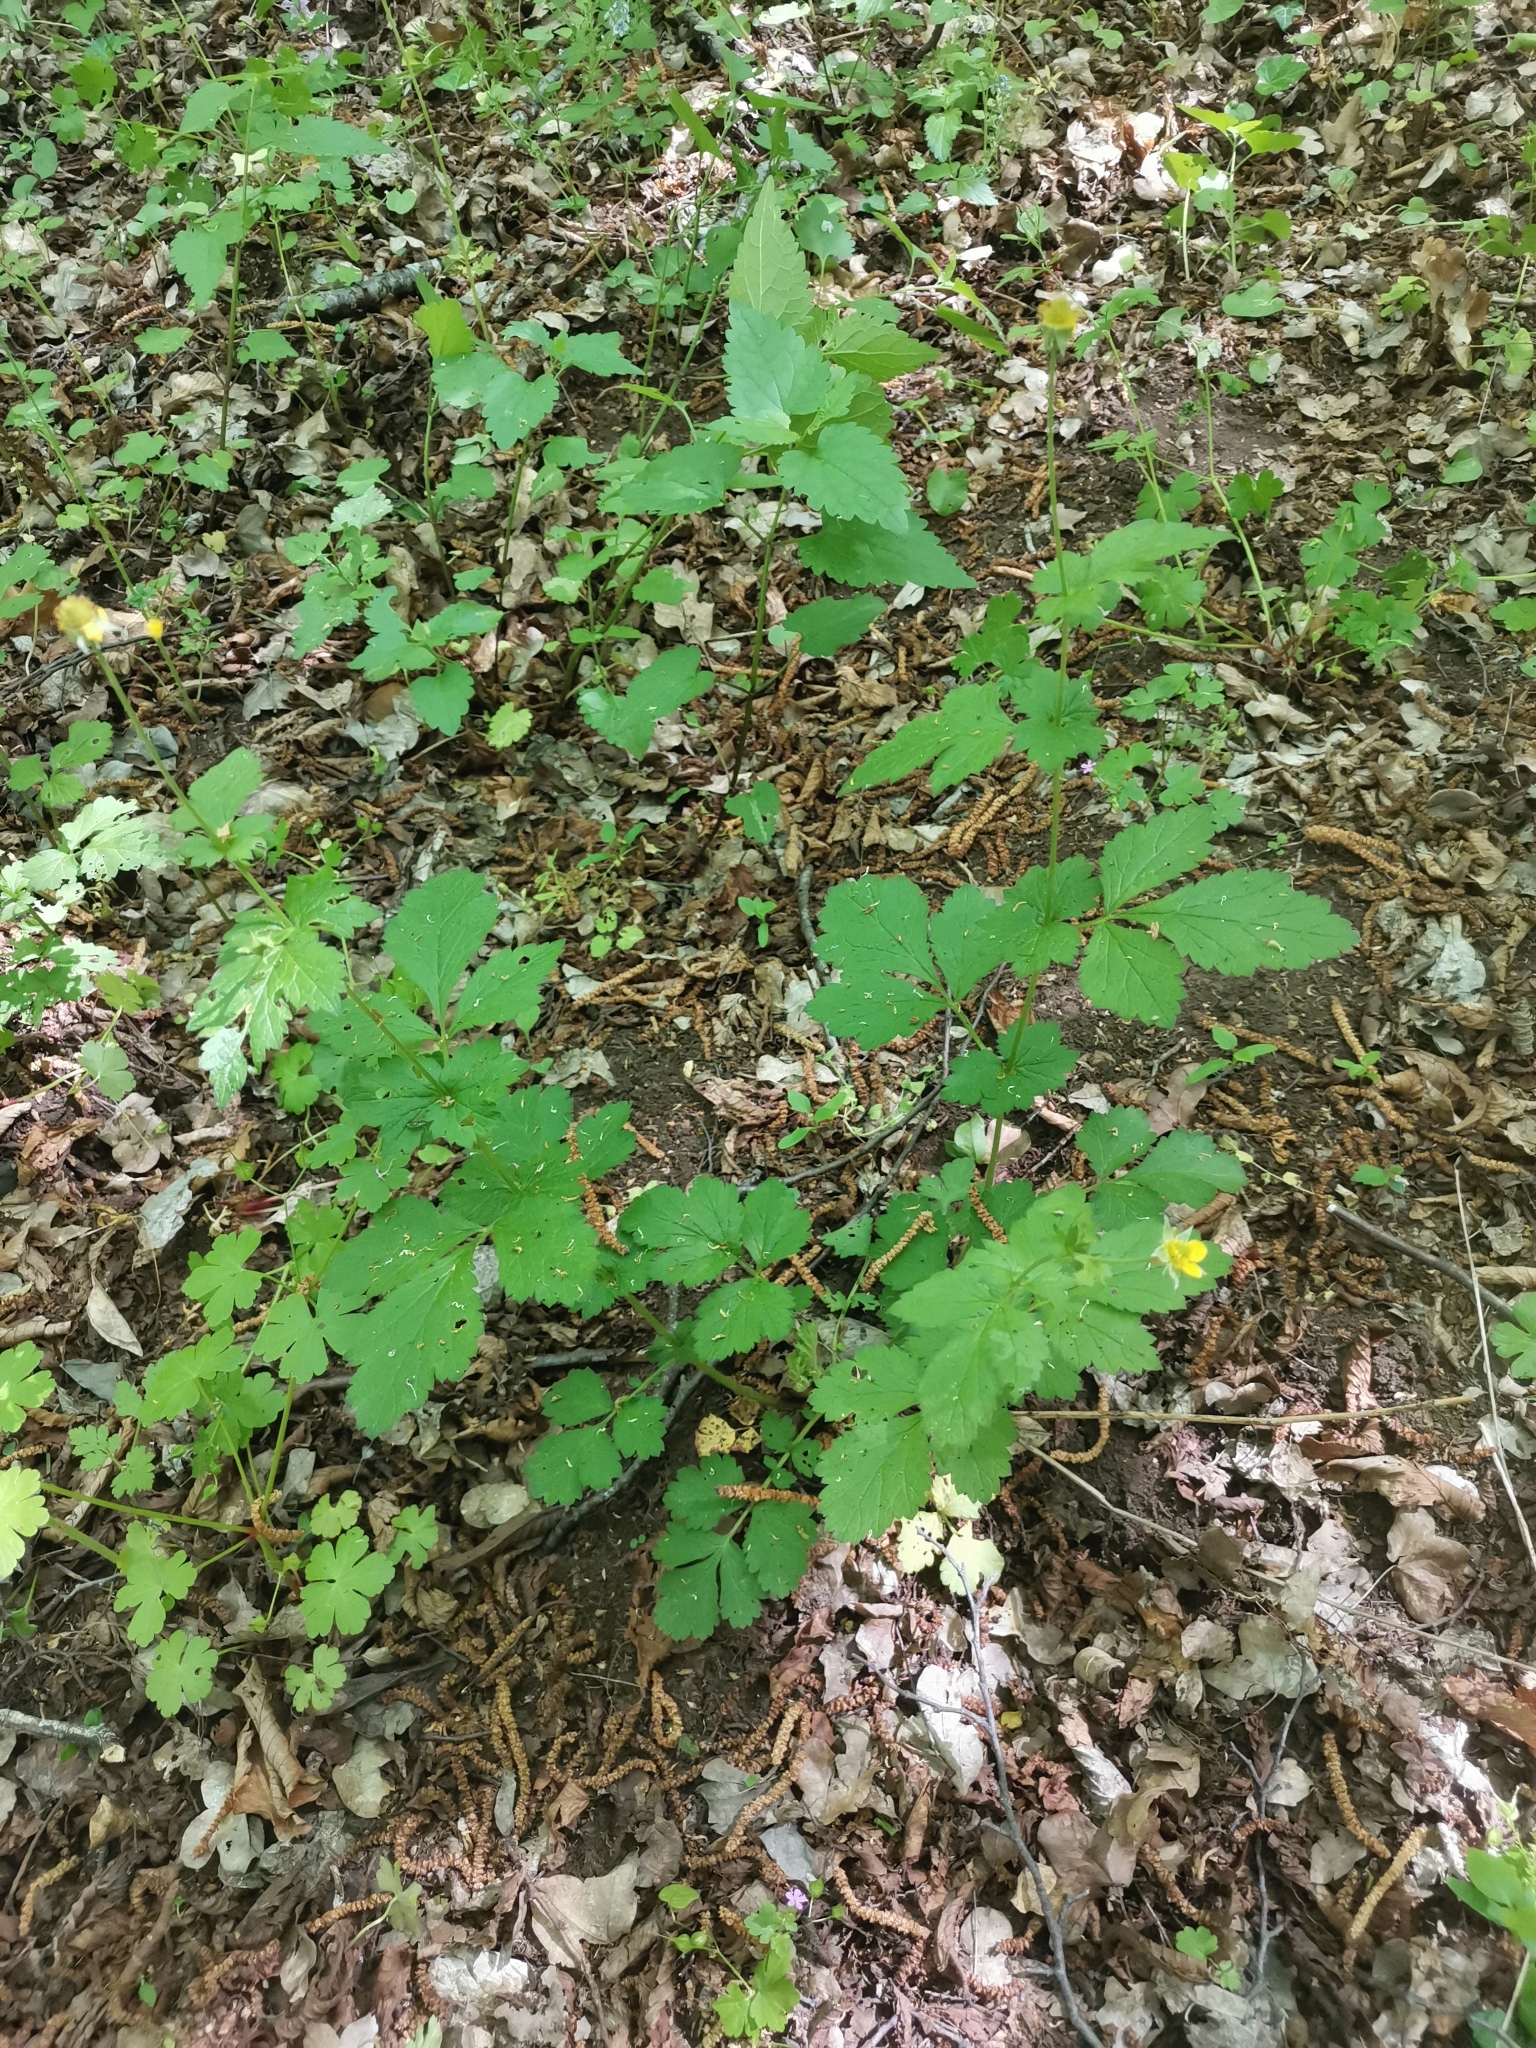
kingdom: Plantae
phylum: Tracheophyta
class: Magnoliopsida
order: Rosales
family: Rosaceae
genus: Geum
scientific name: Geum urbanum
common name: Wood avens
